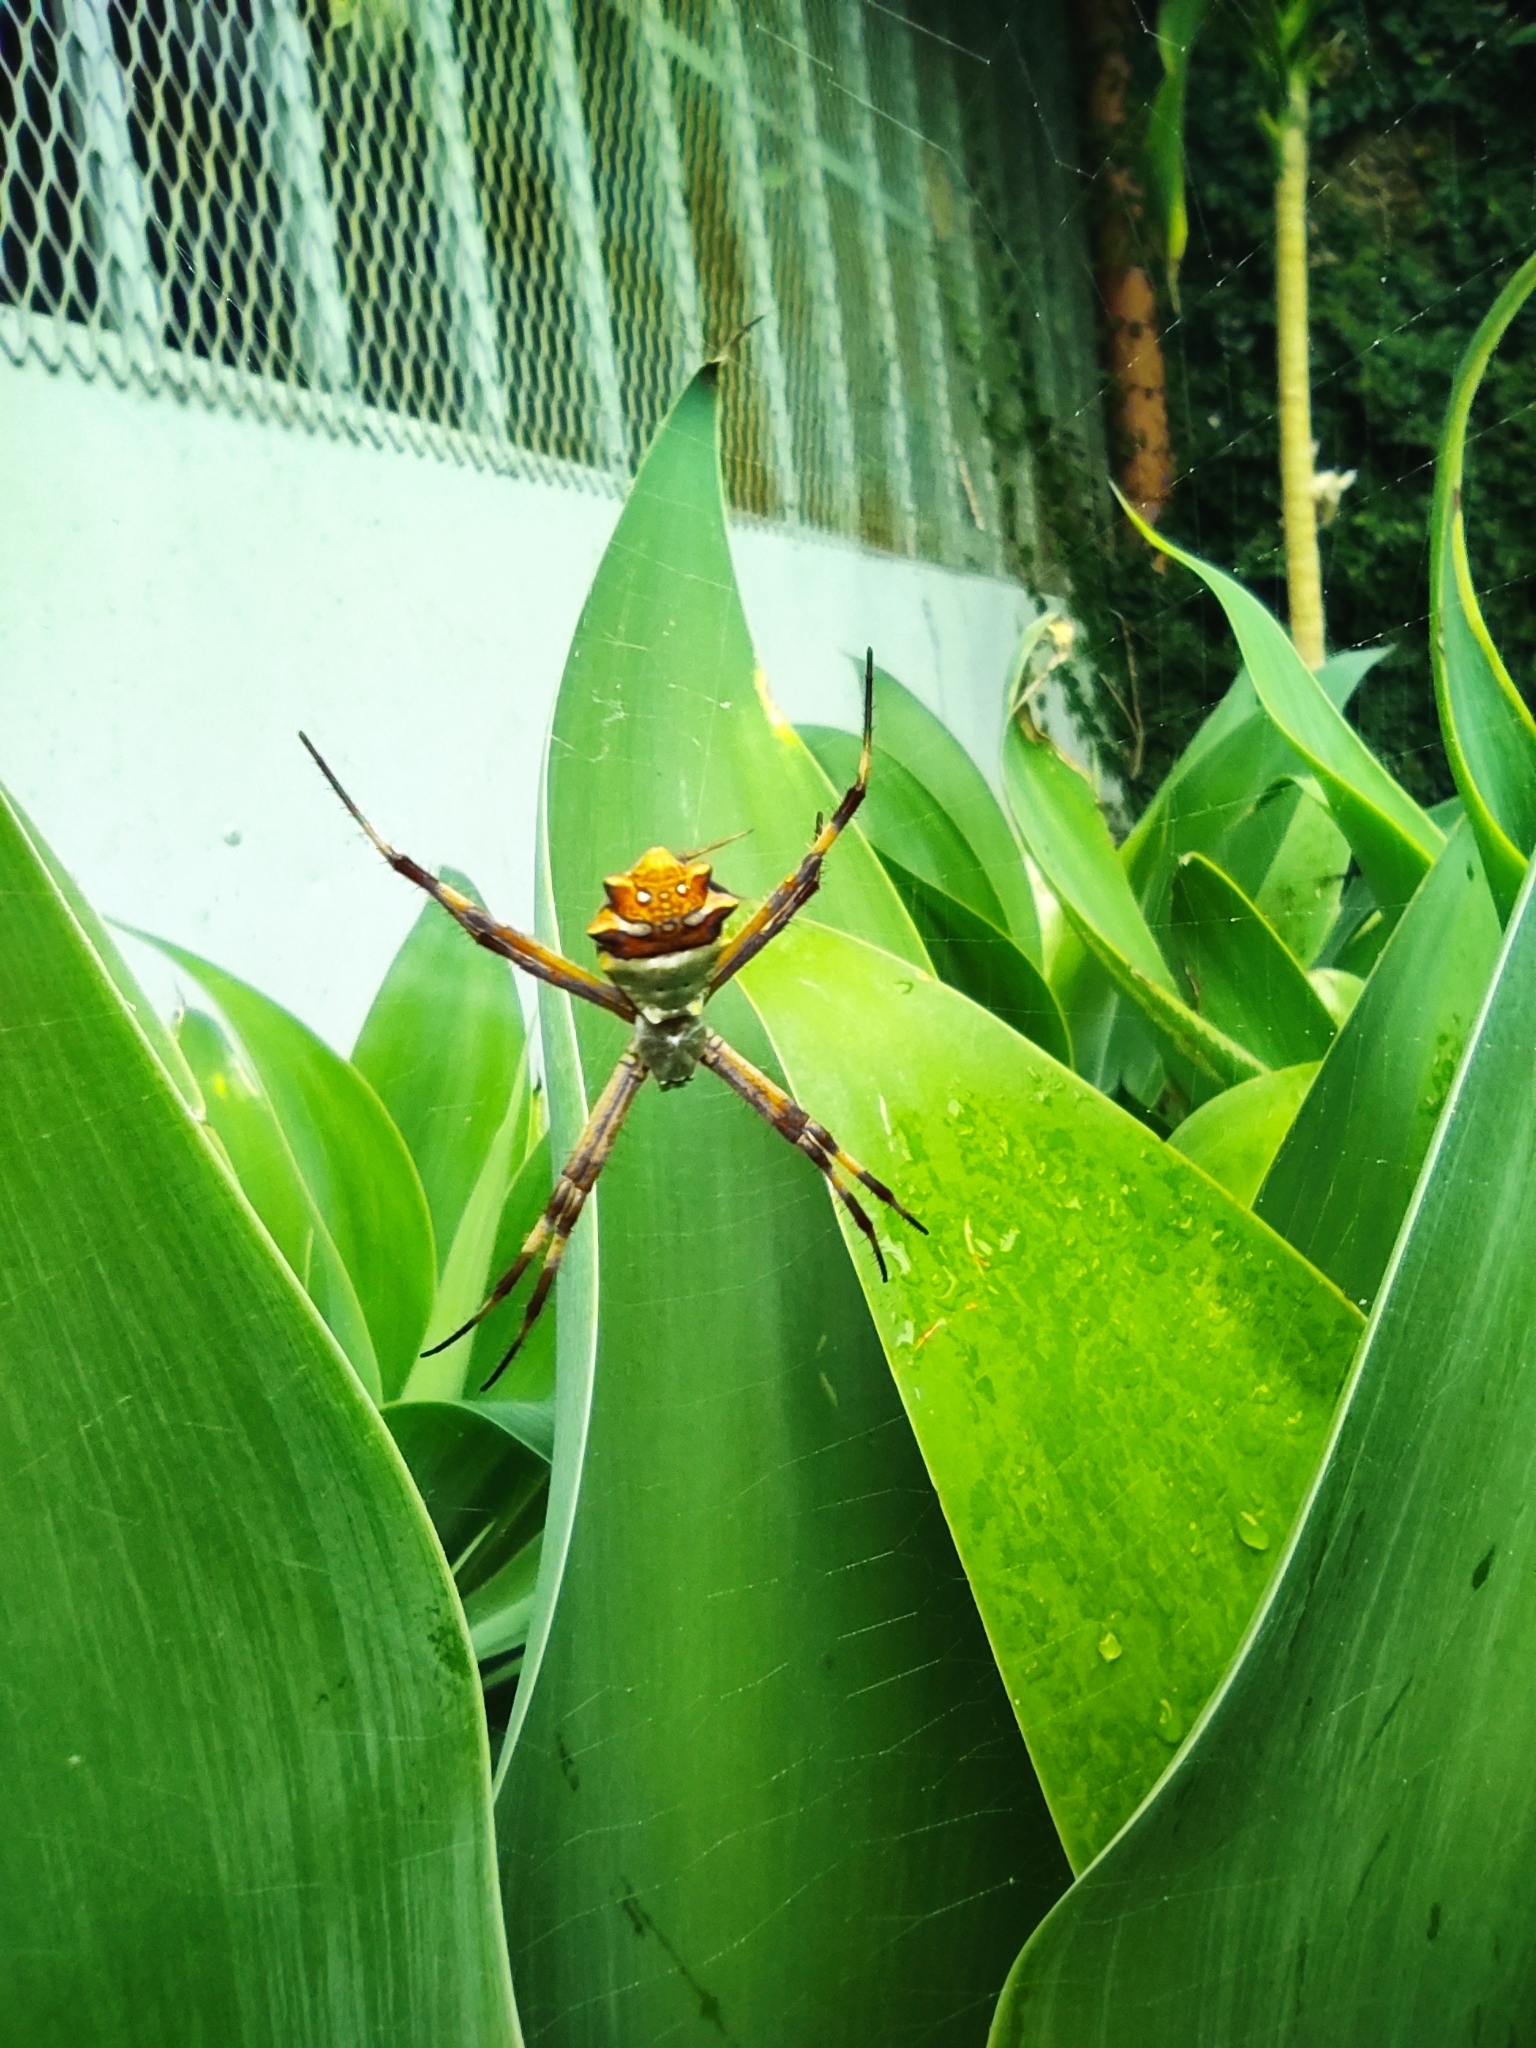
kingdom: Animalia
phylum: Arthropoda
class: Arachnida
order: Araneae
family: Araneidae
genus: Argiope
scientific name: Argiope argentata
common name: Orb weavers
